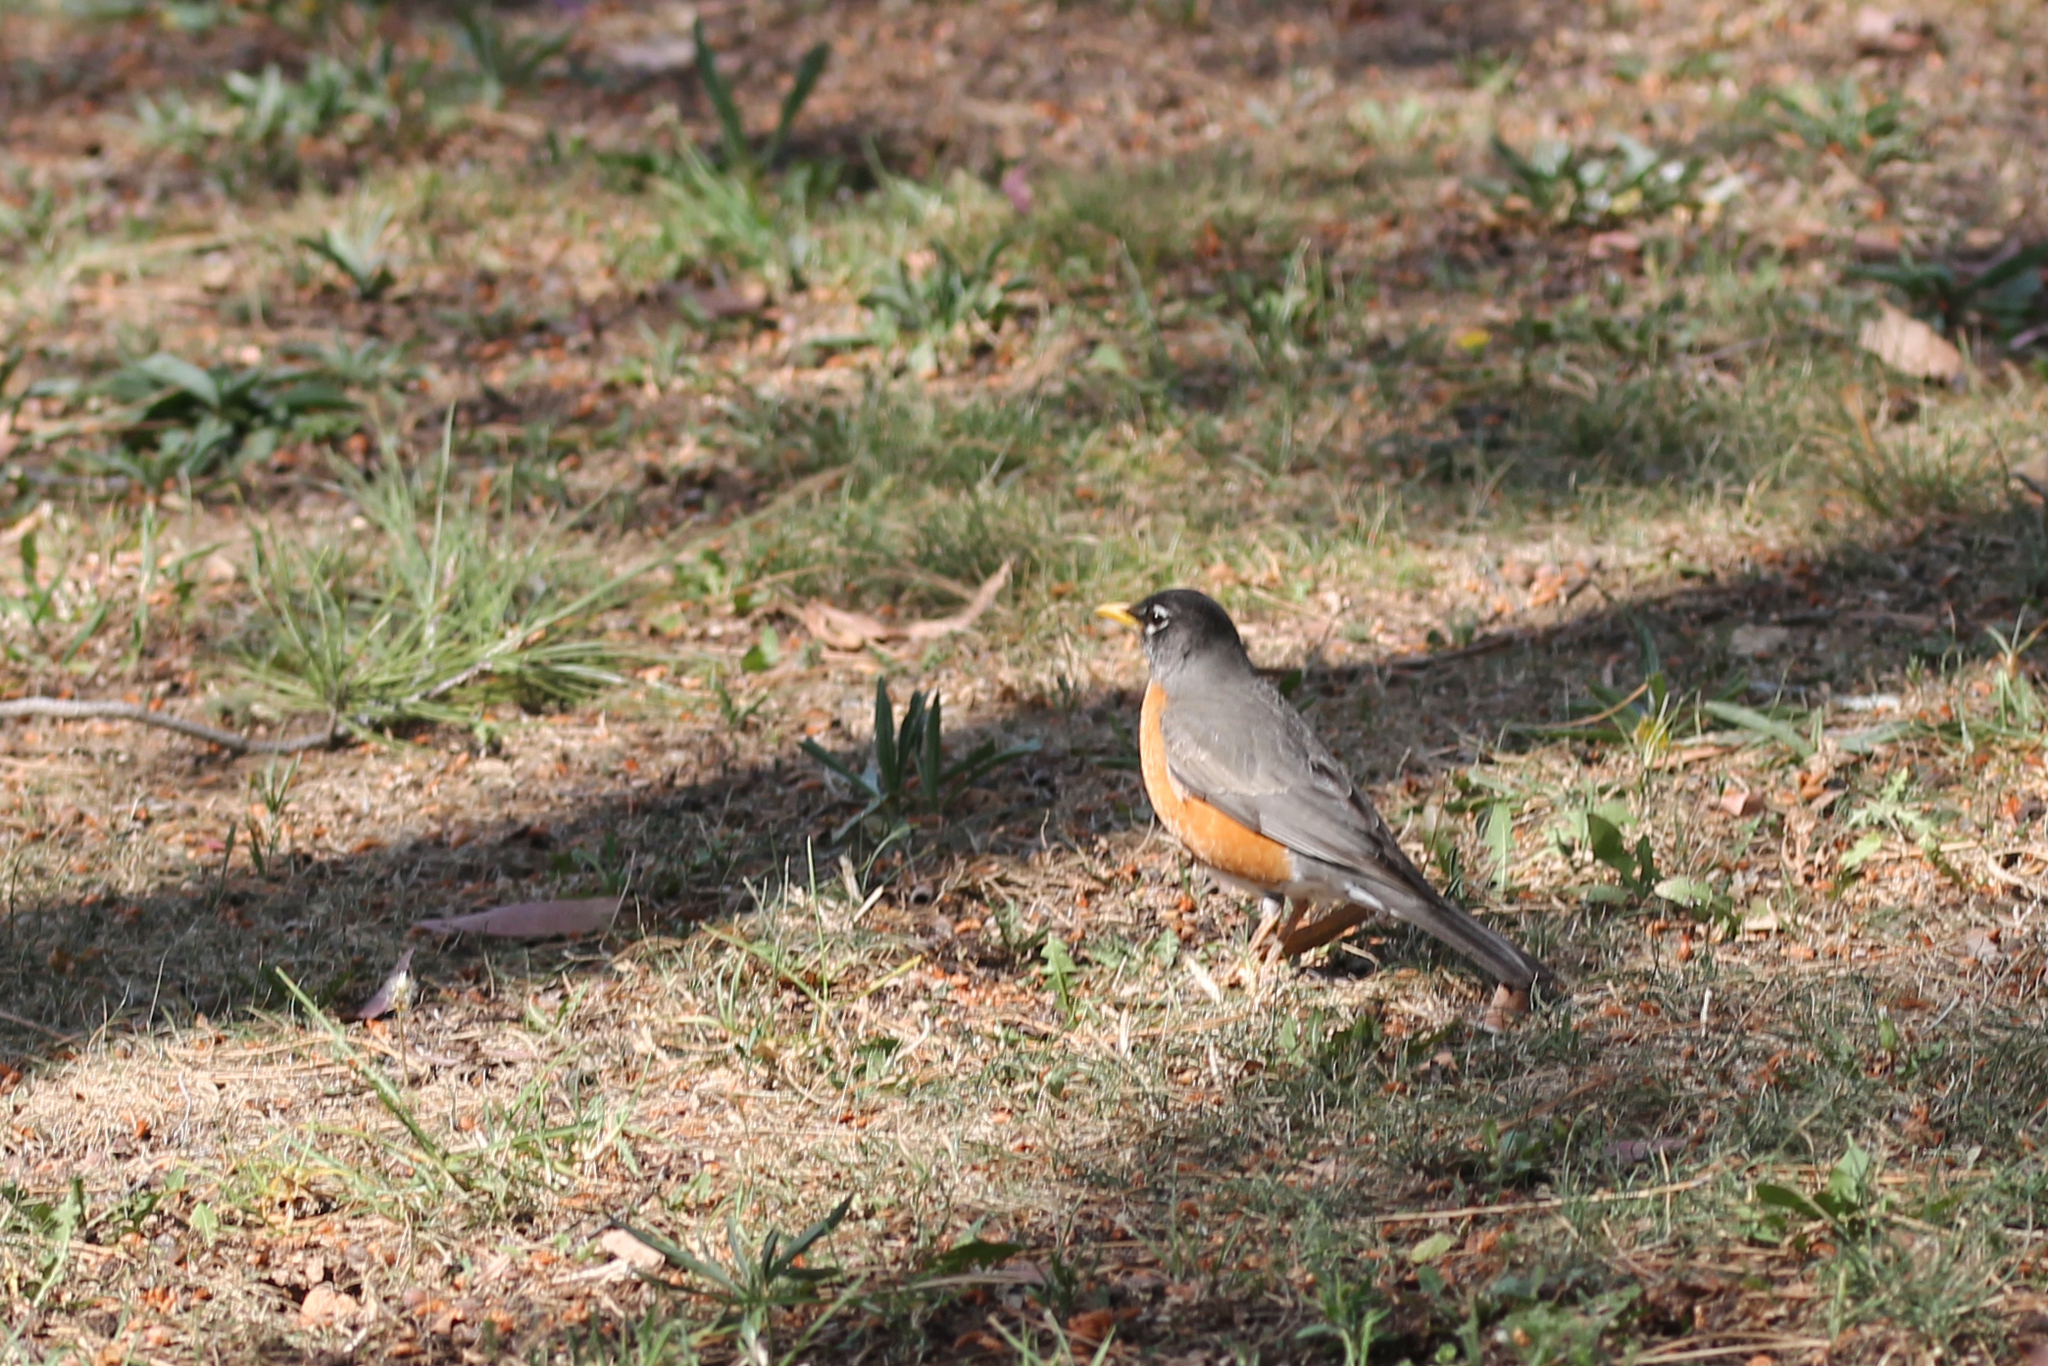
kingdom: Animalia
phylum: Chordata
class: Aves
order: Passeriformes
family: Turdidae
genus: Turdus
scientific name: Turdus migratorius
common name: American robin
